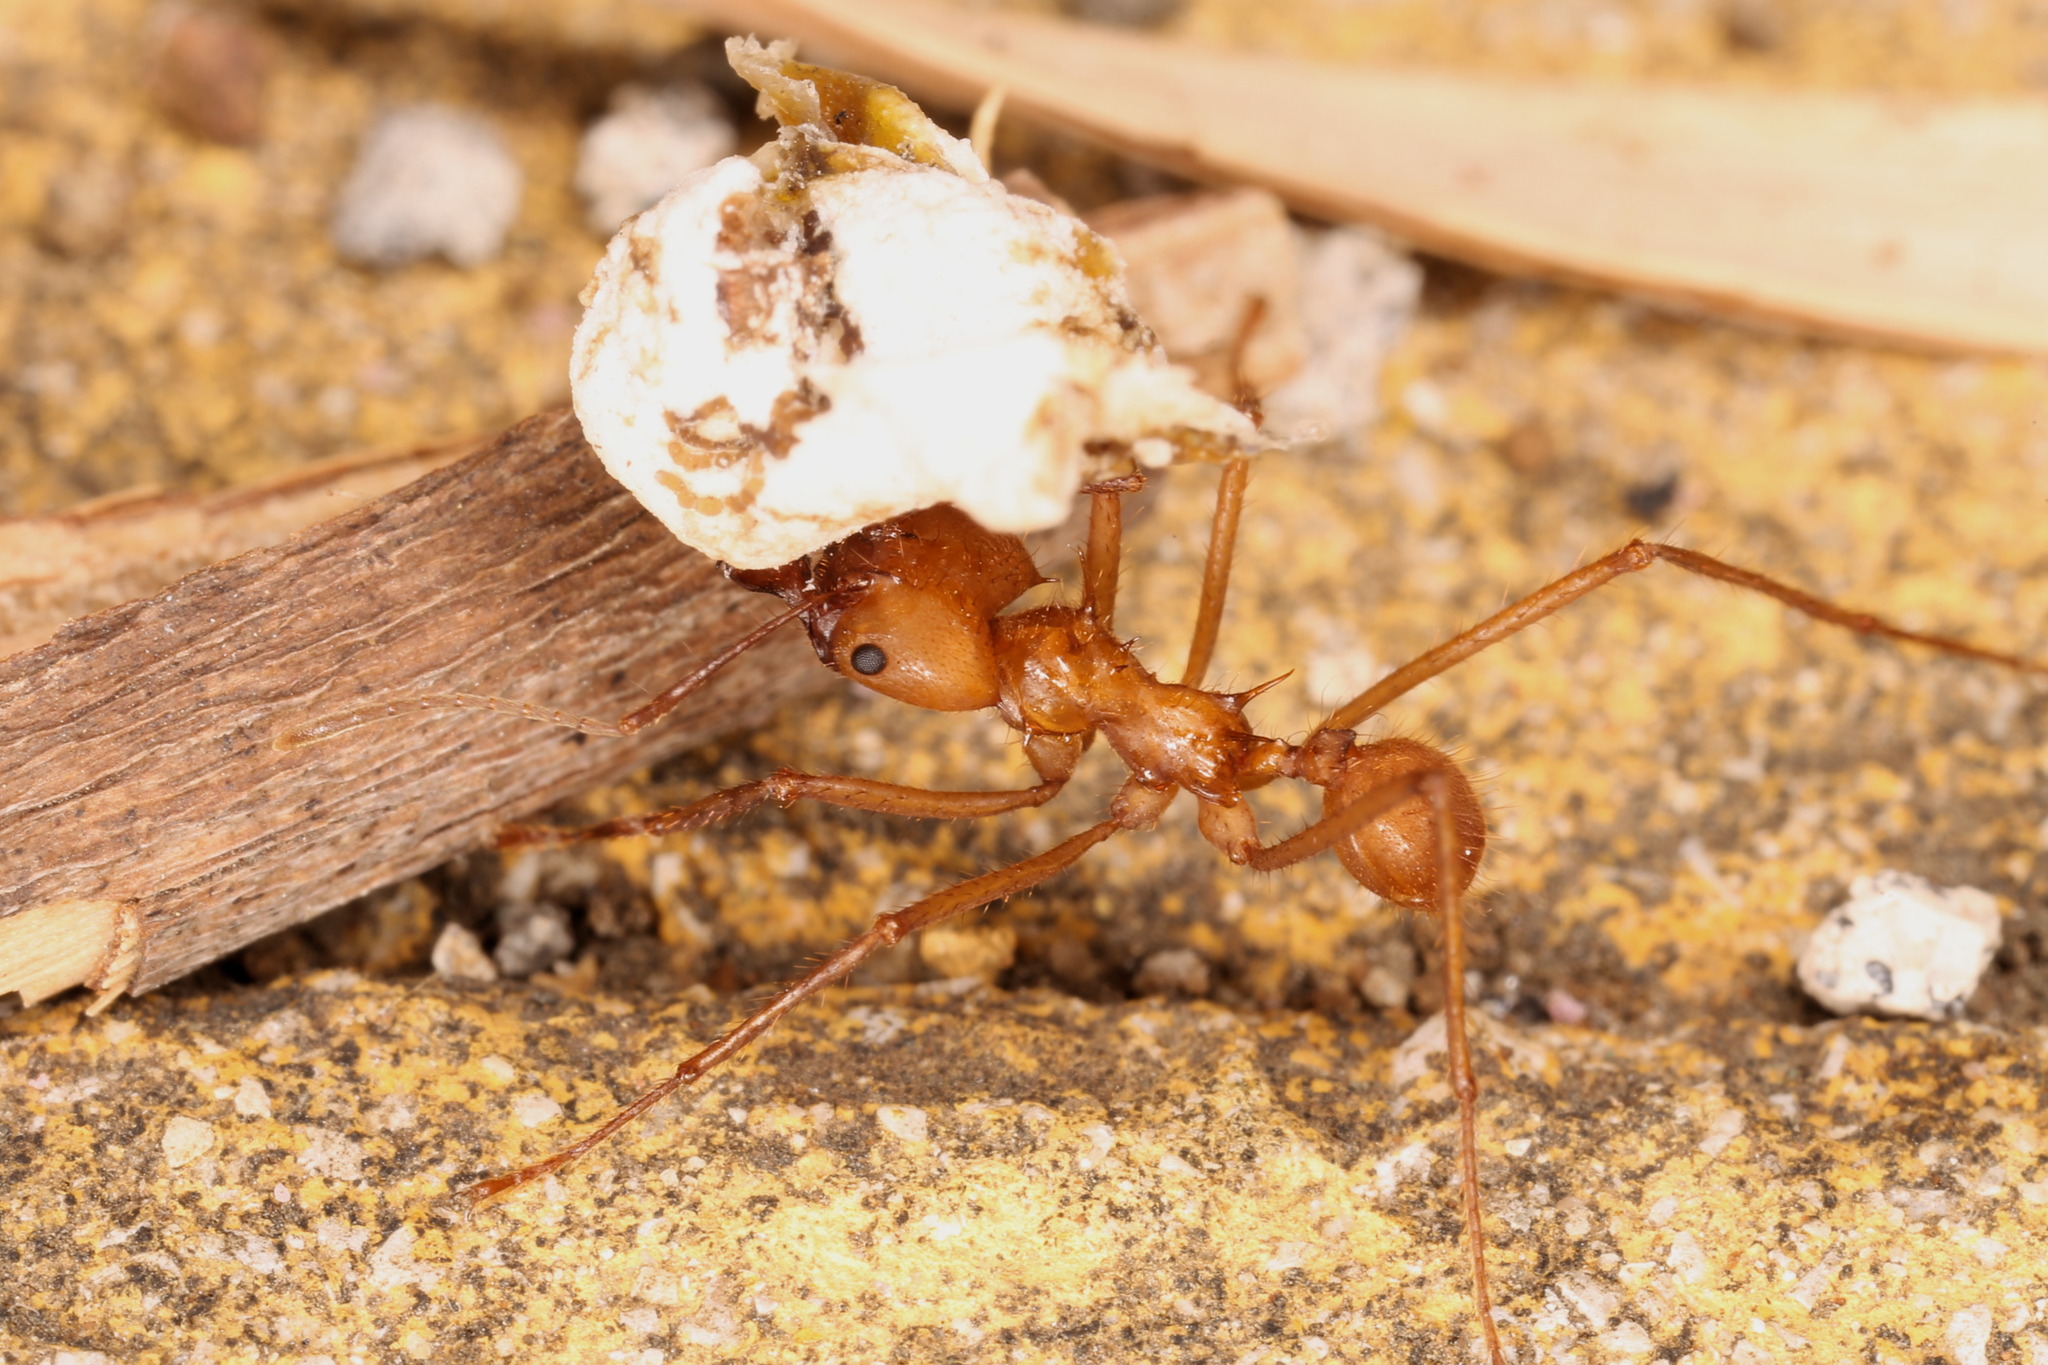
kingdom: Animalia
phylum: Arthropoda
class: Insecta
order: Hymenoptera
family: Formicidae
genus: Atta
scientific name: Atta cephalotes
